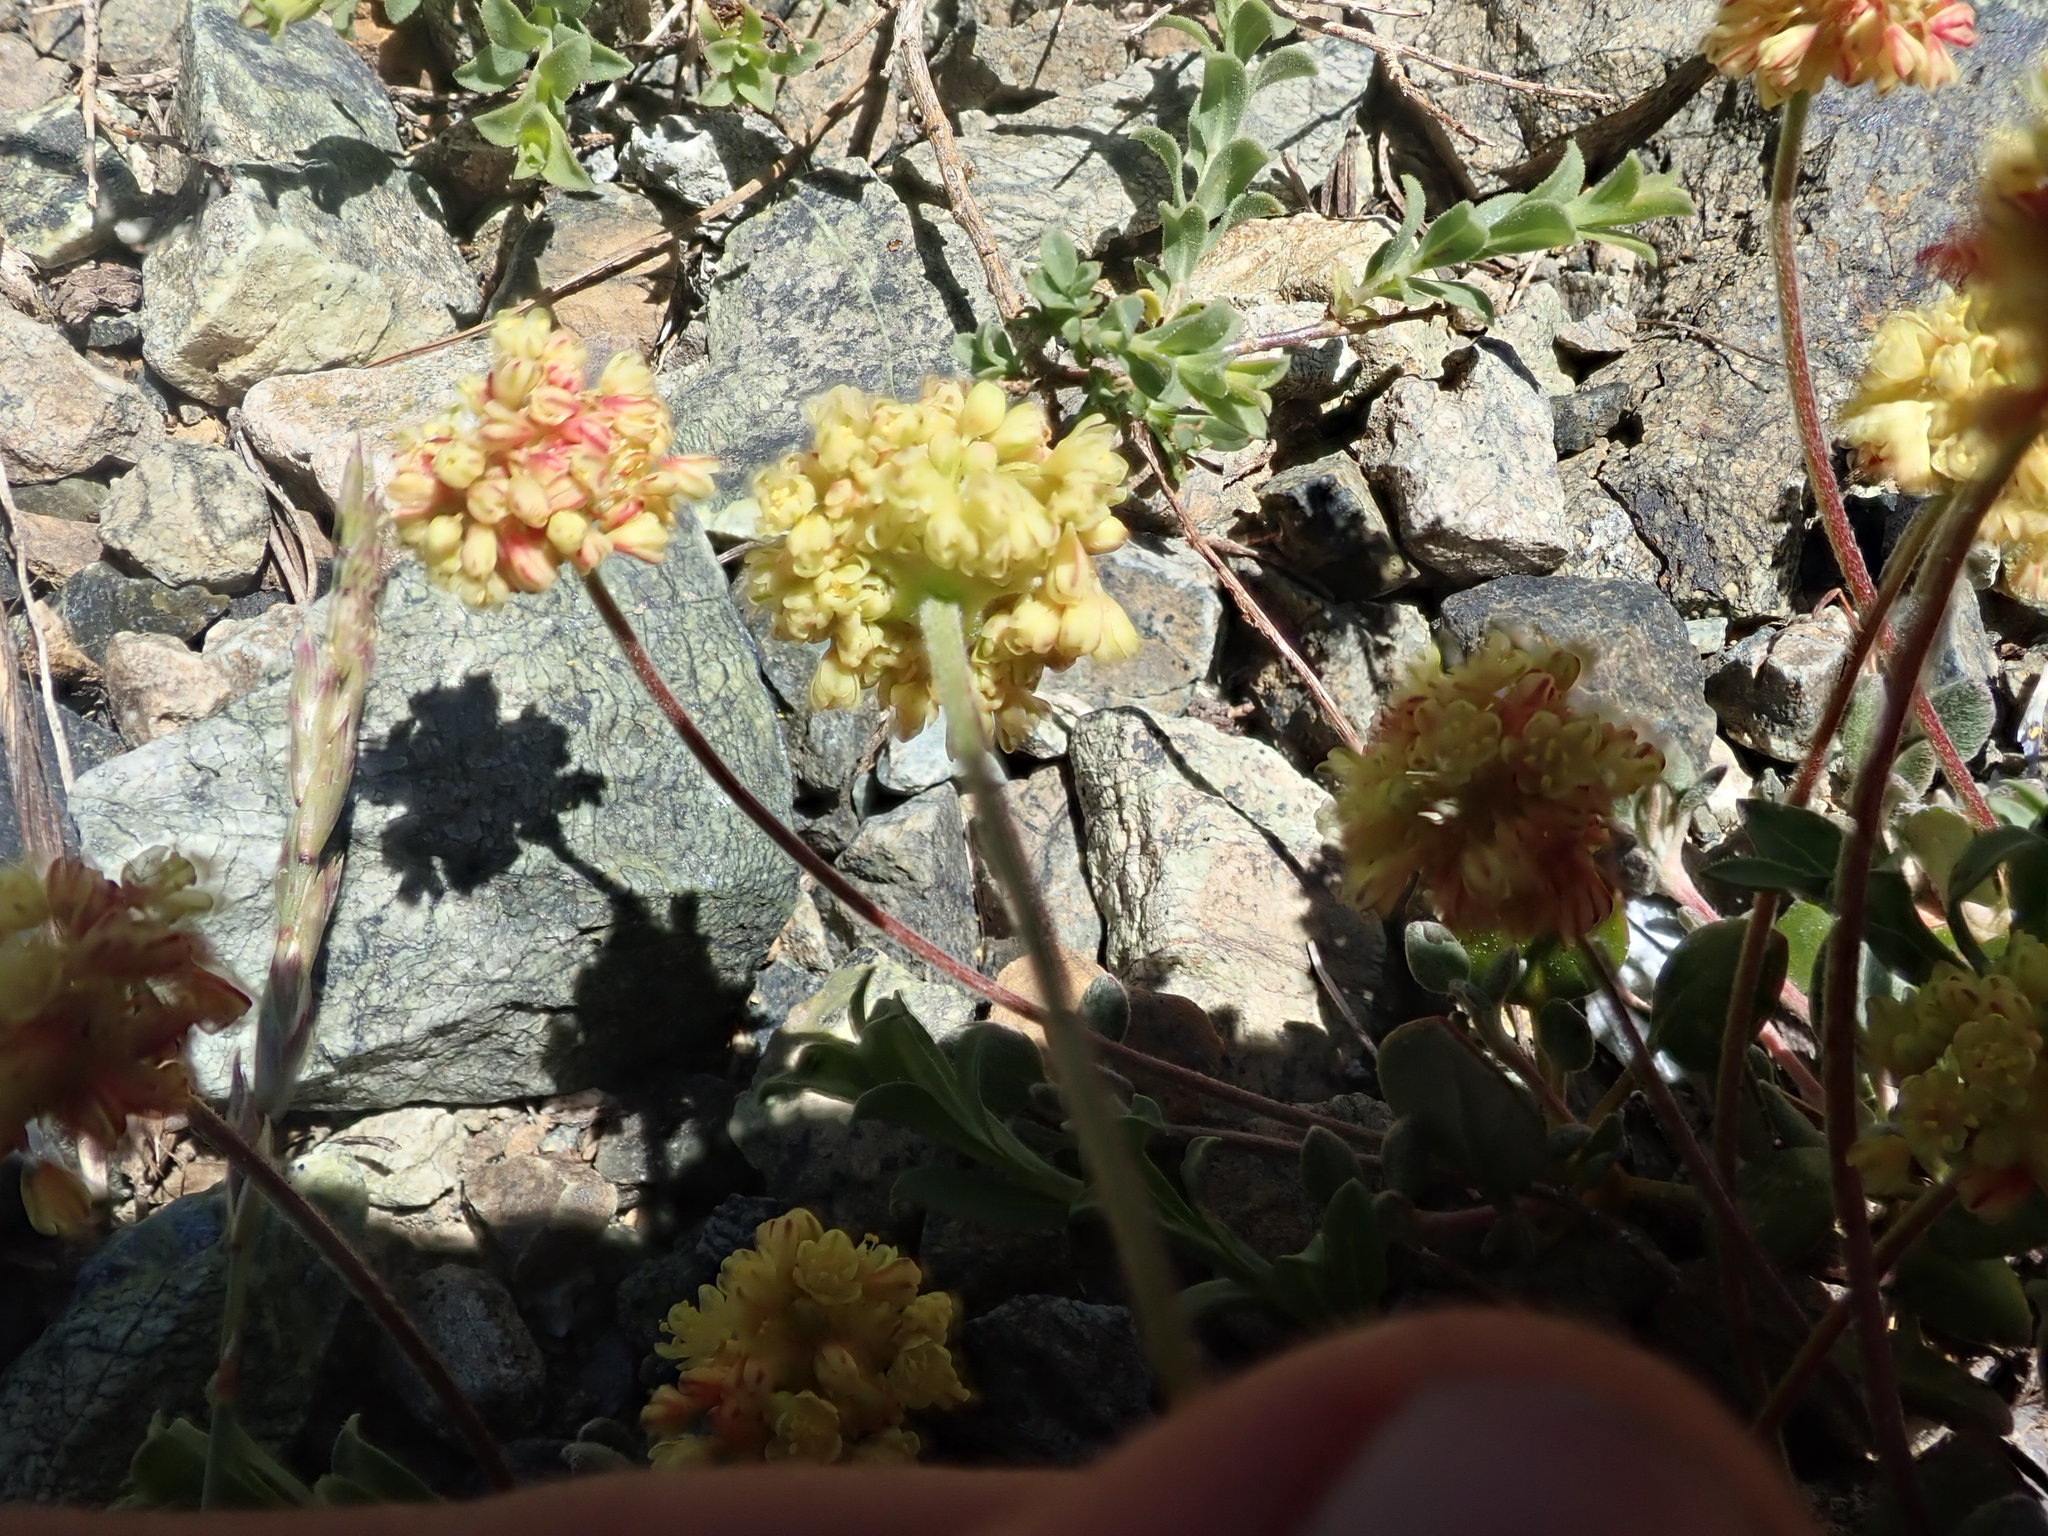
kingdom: Plantae
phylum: Tracheophyta
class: Magnoliopsida
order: Caryophyllales
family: Polygonaceae
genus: Eriogonum
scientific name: Eriogonum marifolium
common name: Marum-leaf wild buckwheat
